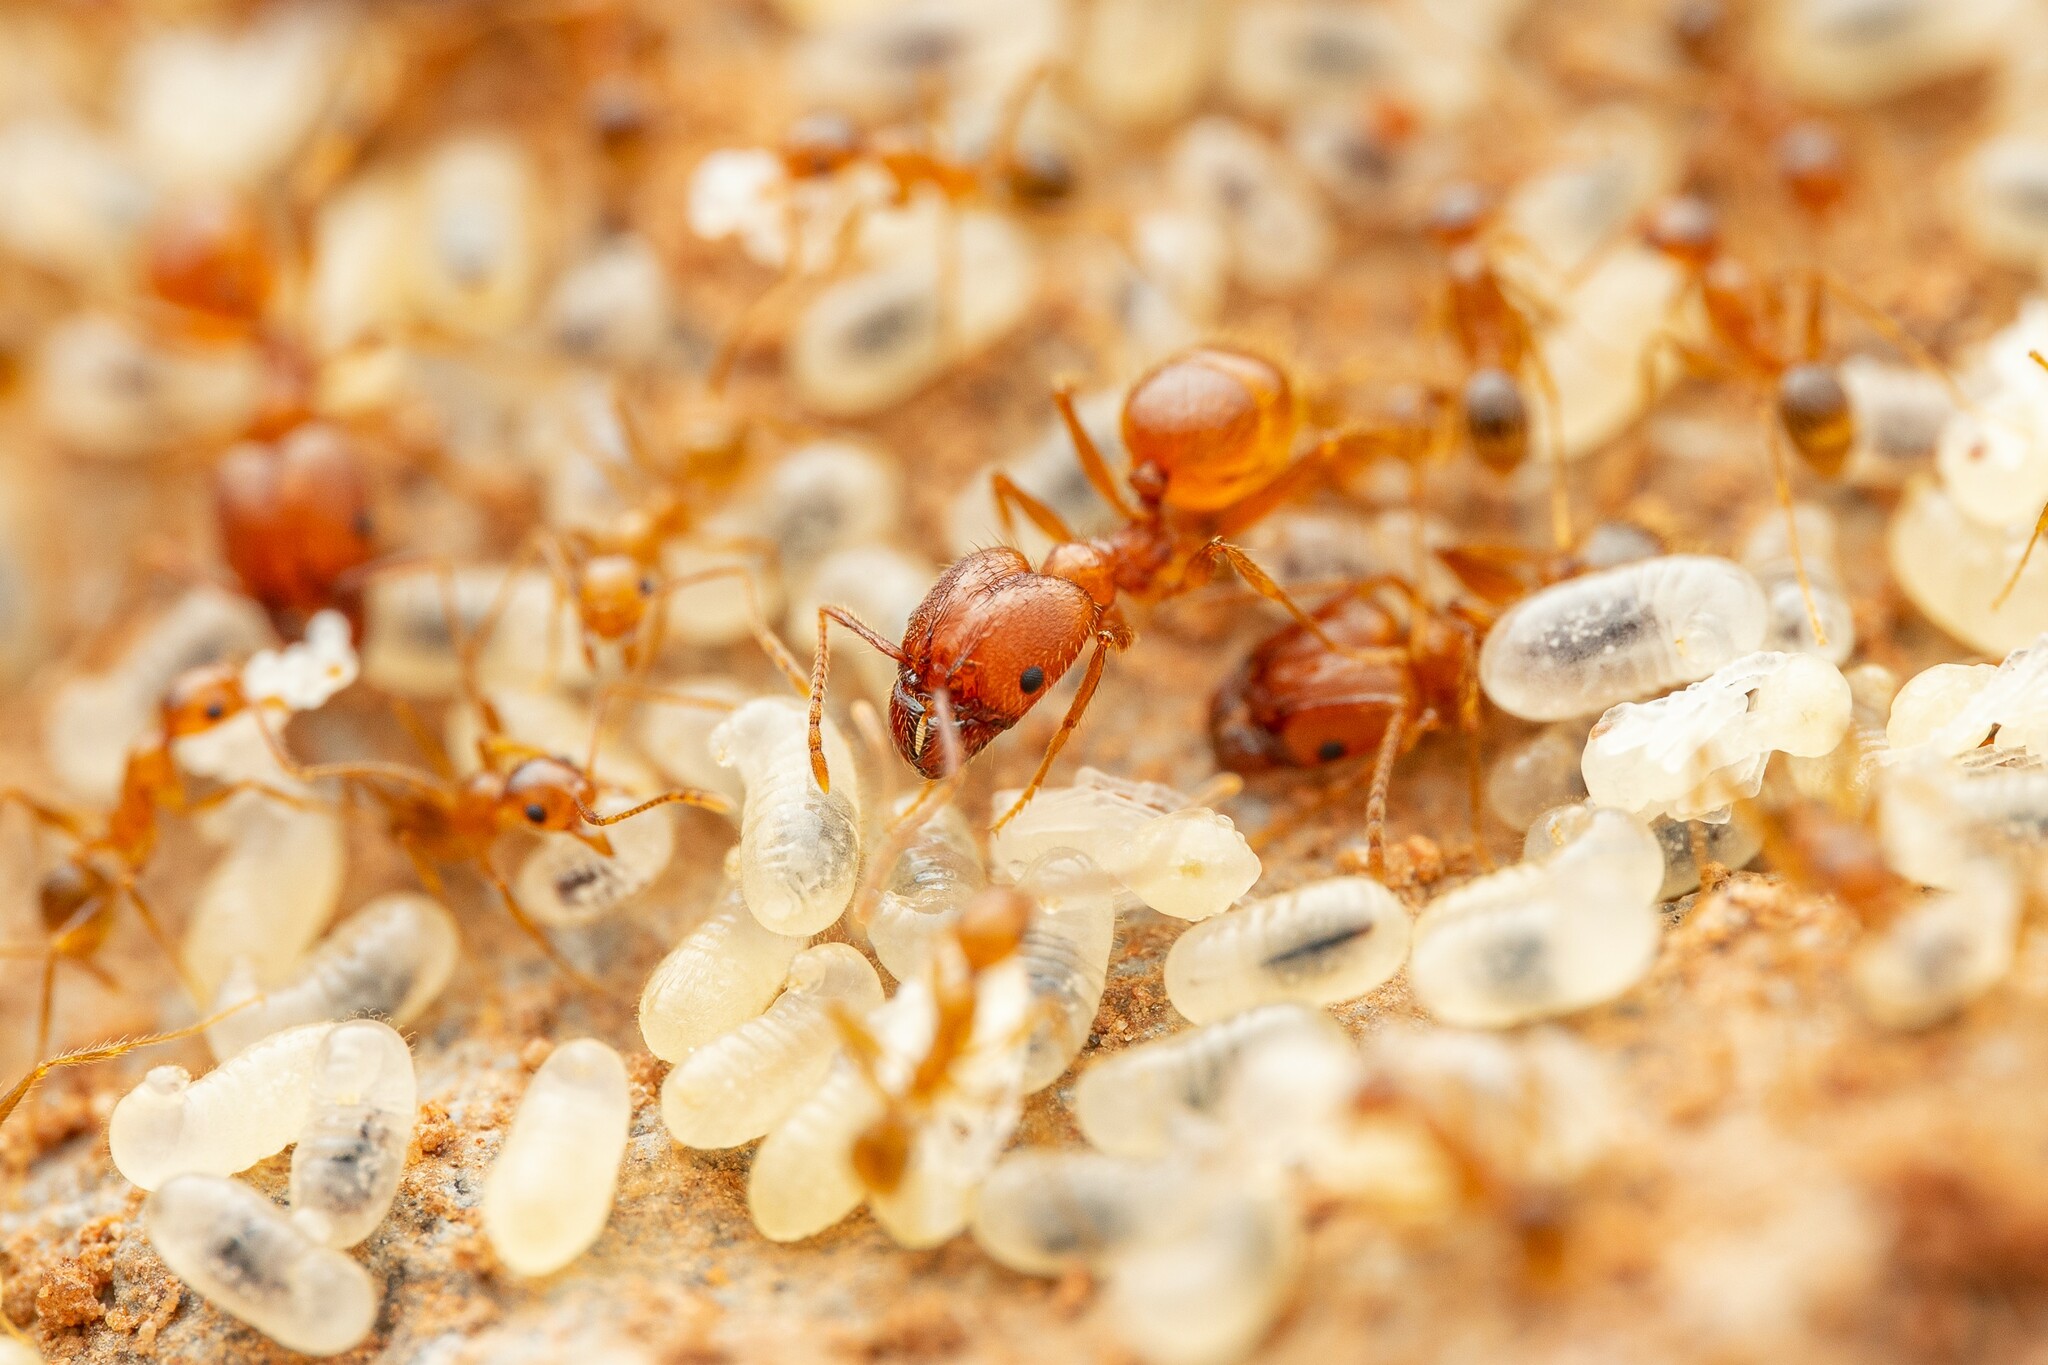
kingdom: Animalia
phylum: Arthropoda
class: Insecta
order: Hymenoptera
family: Formicidae
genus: Pheidole
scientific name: Pheidole hyatti
